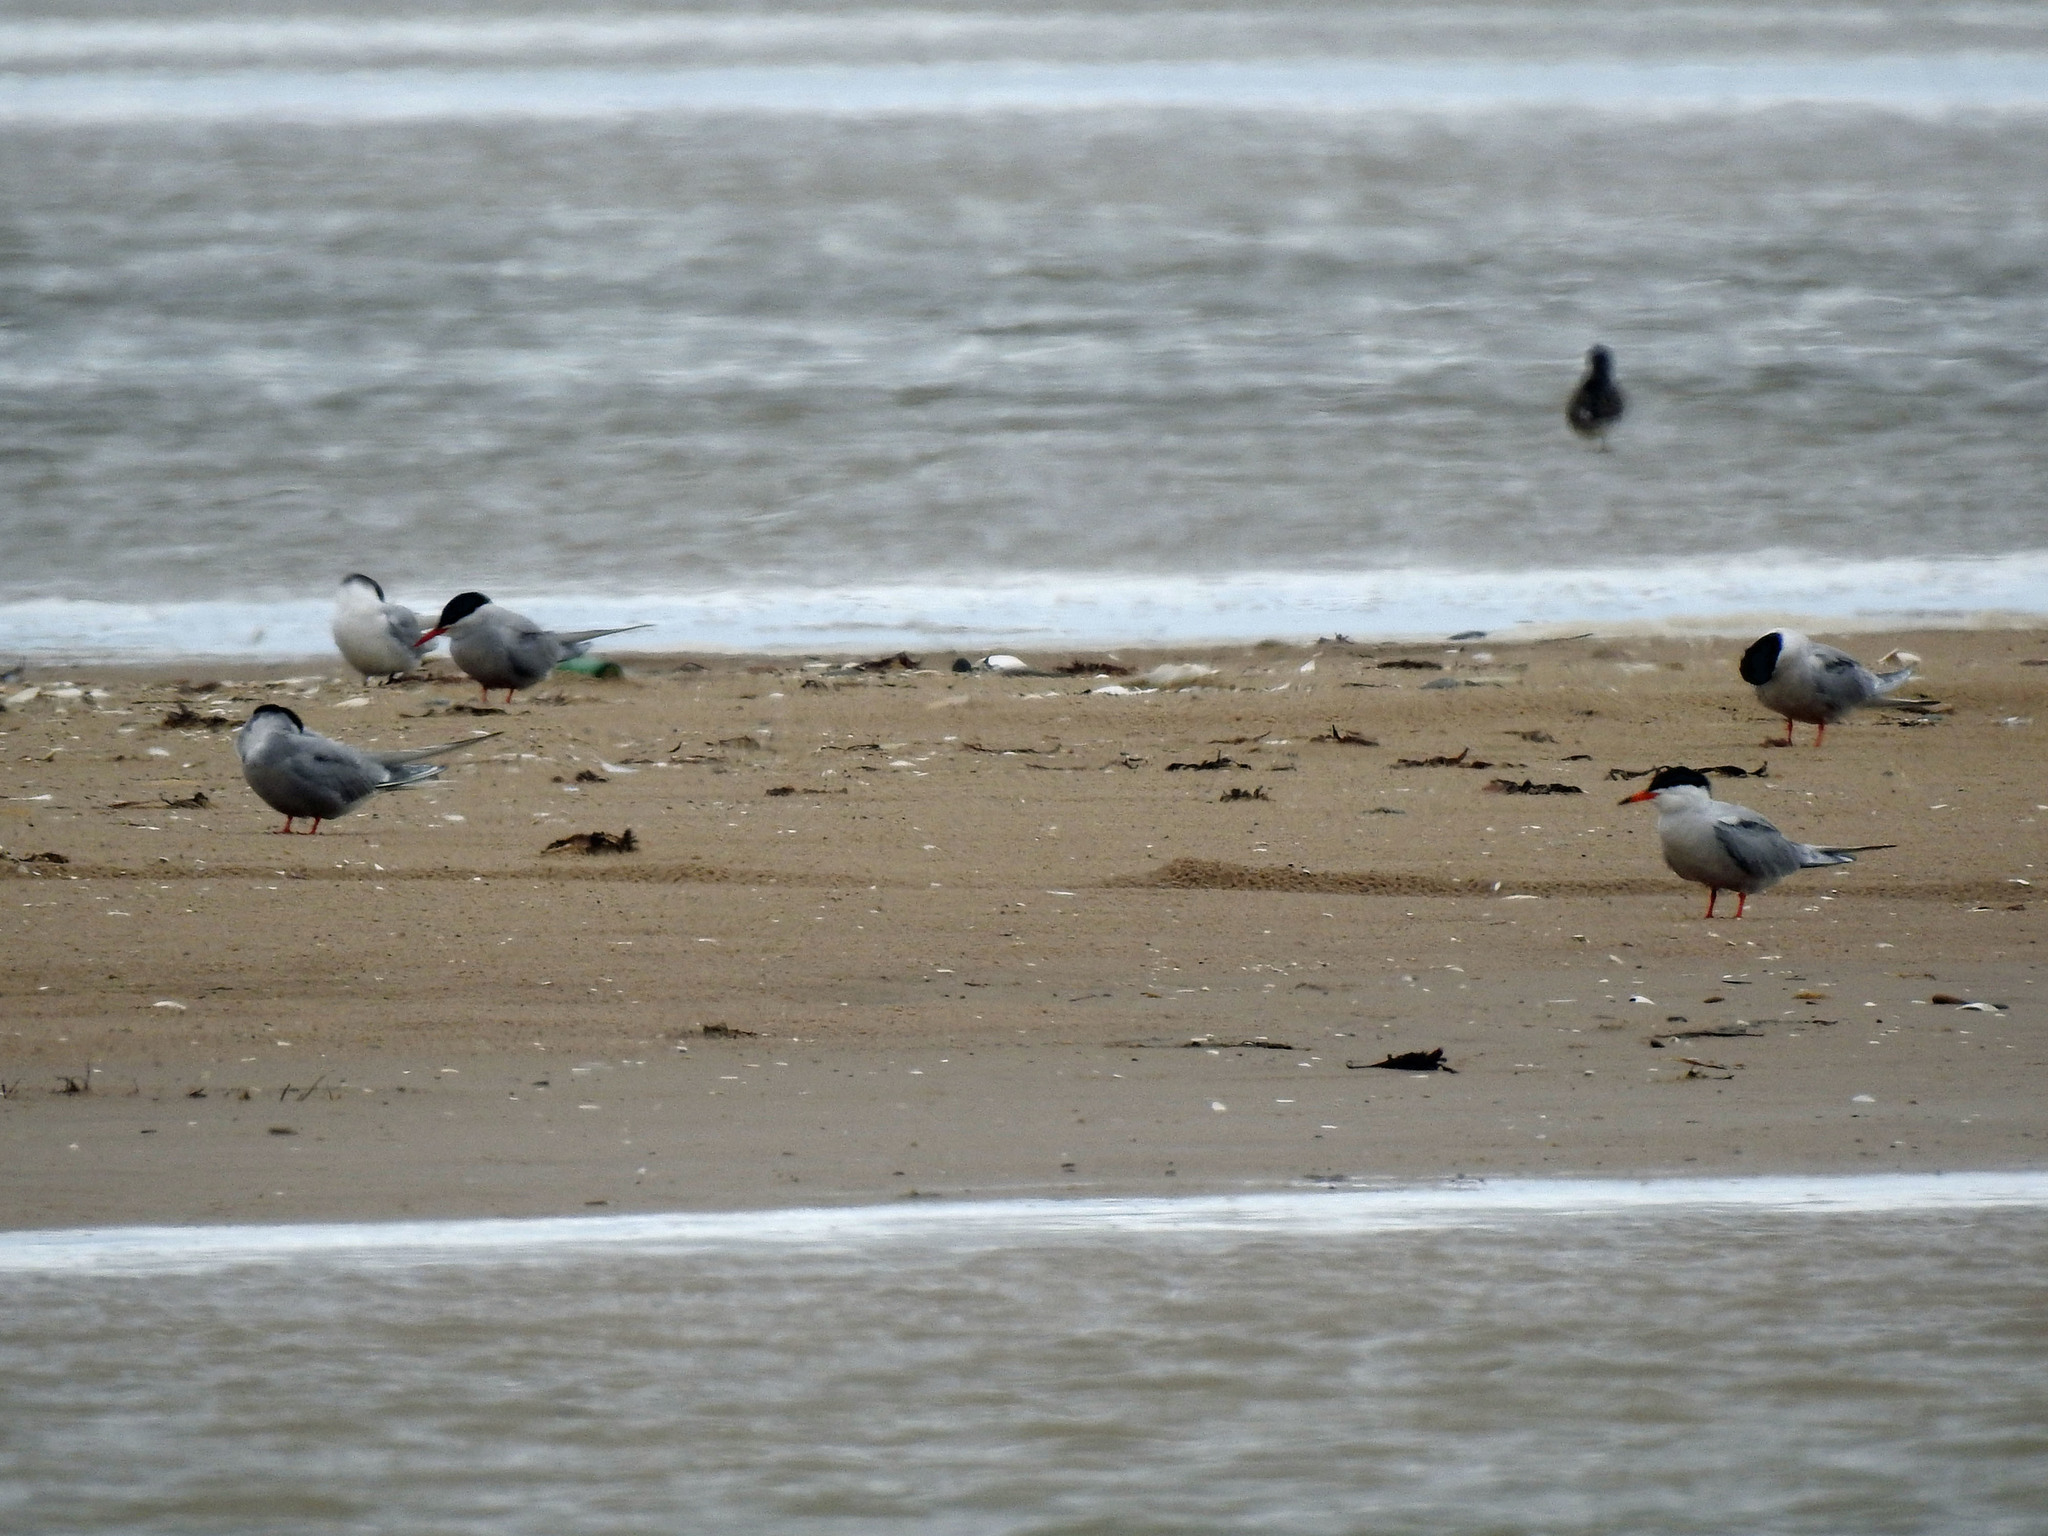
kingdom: Animalia
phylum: Chordata
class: Aves
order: Charadriiformes
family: Laridae
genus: Sterna
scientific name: Sterna paradisaea
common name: Arctic tern
